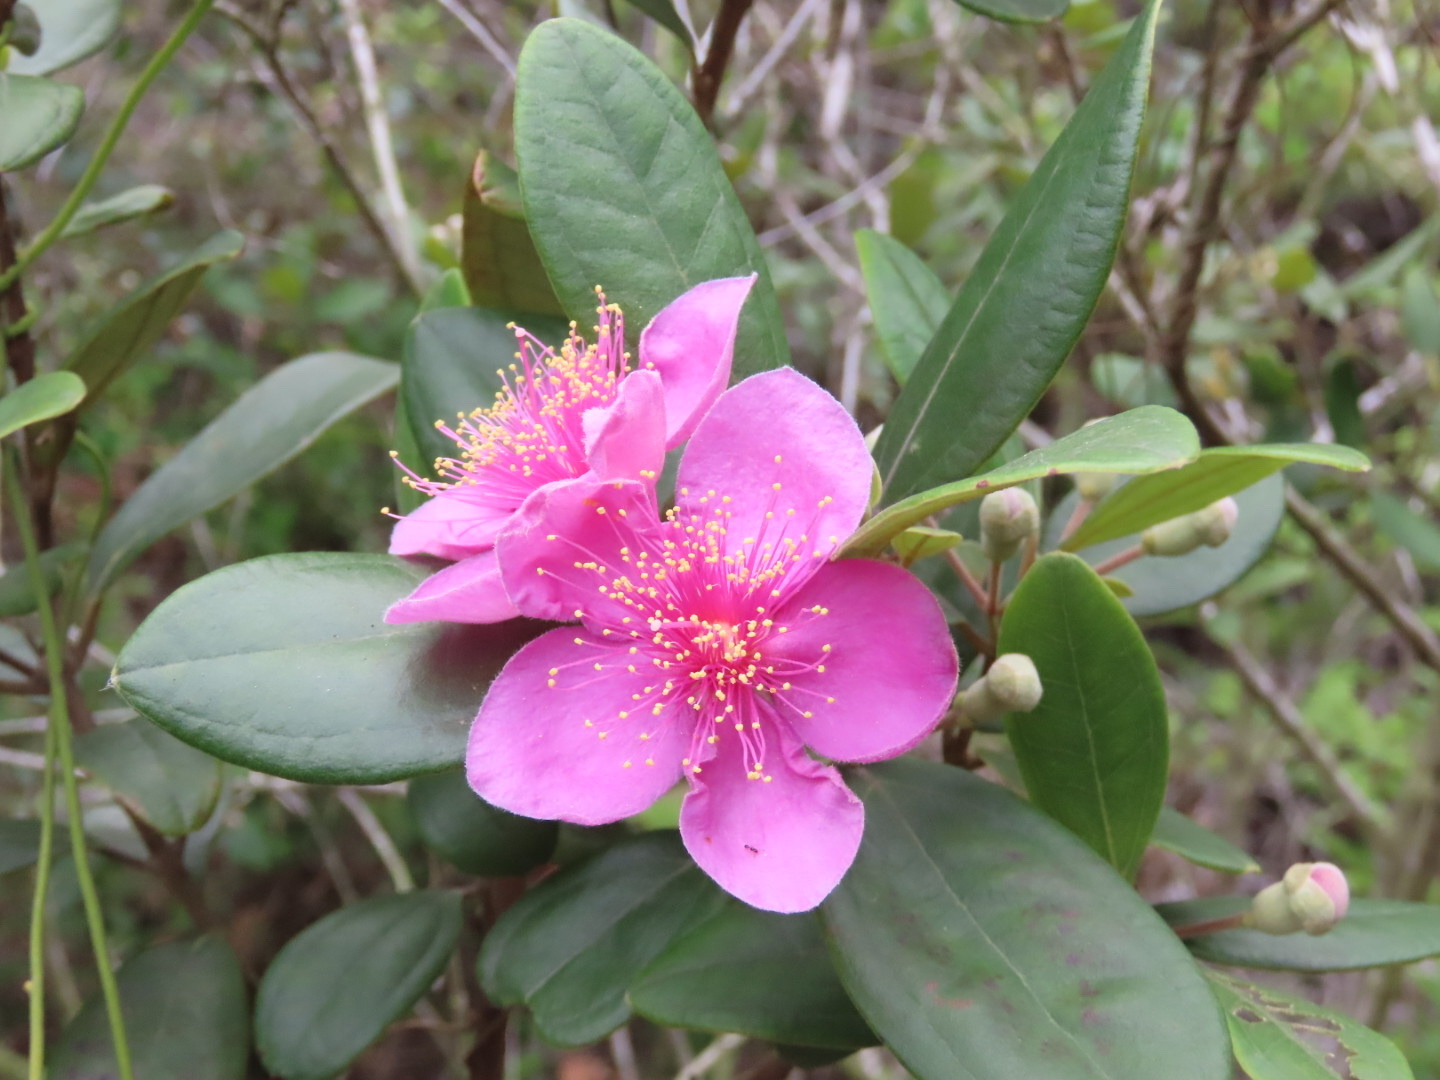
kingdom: Plantae
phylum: Tracheophyta
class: Magnoliopsida
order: Myrtales
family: Myrtaceae
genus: Rhodomyrtus
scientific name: Rhodomyrtus tomentosa
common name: Rose myrtle
